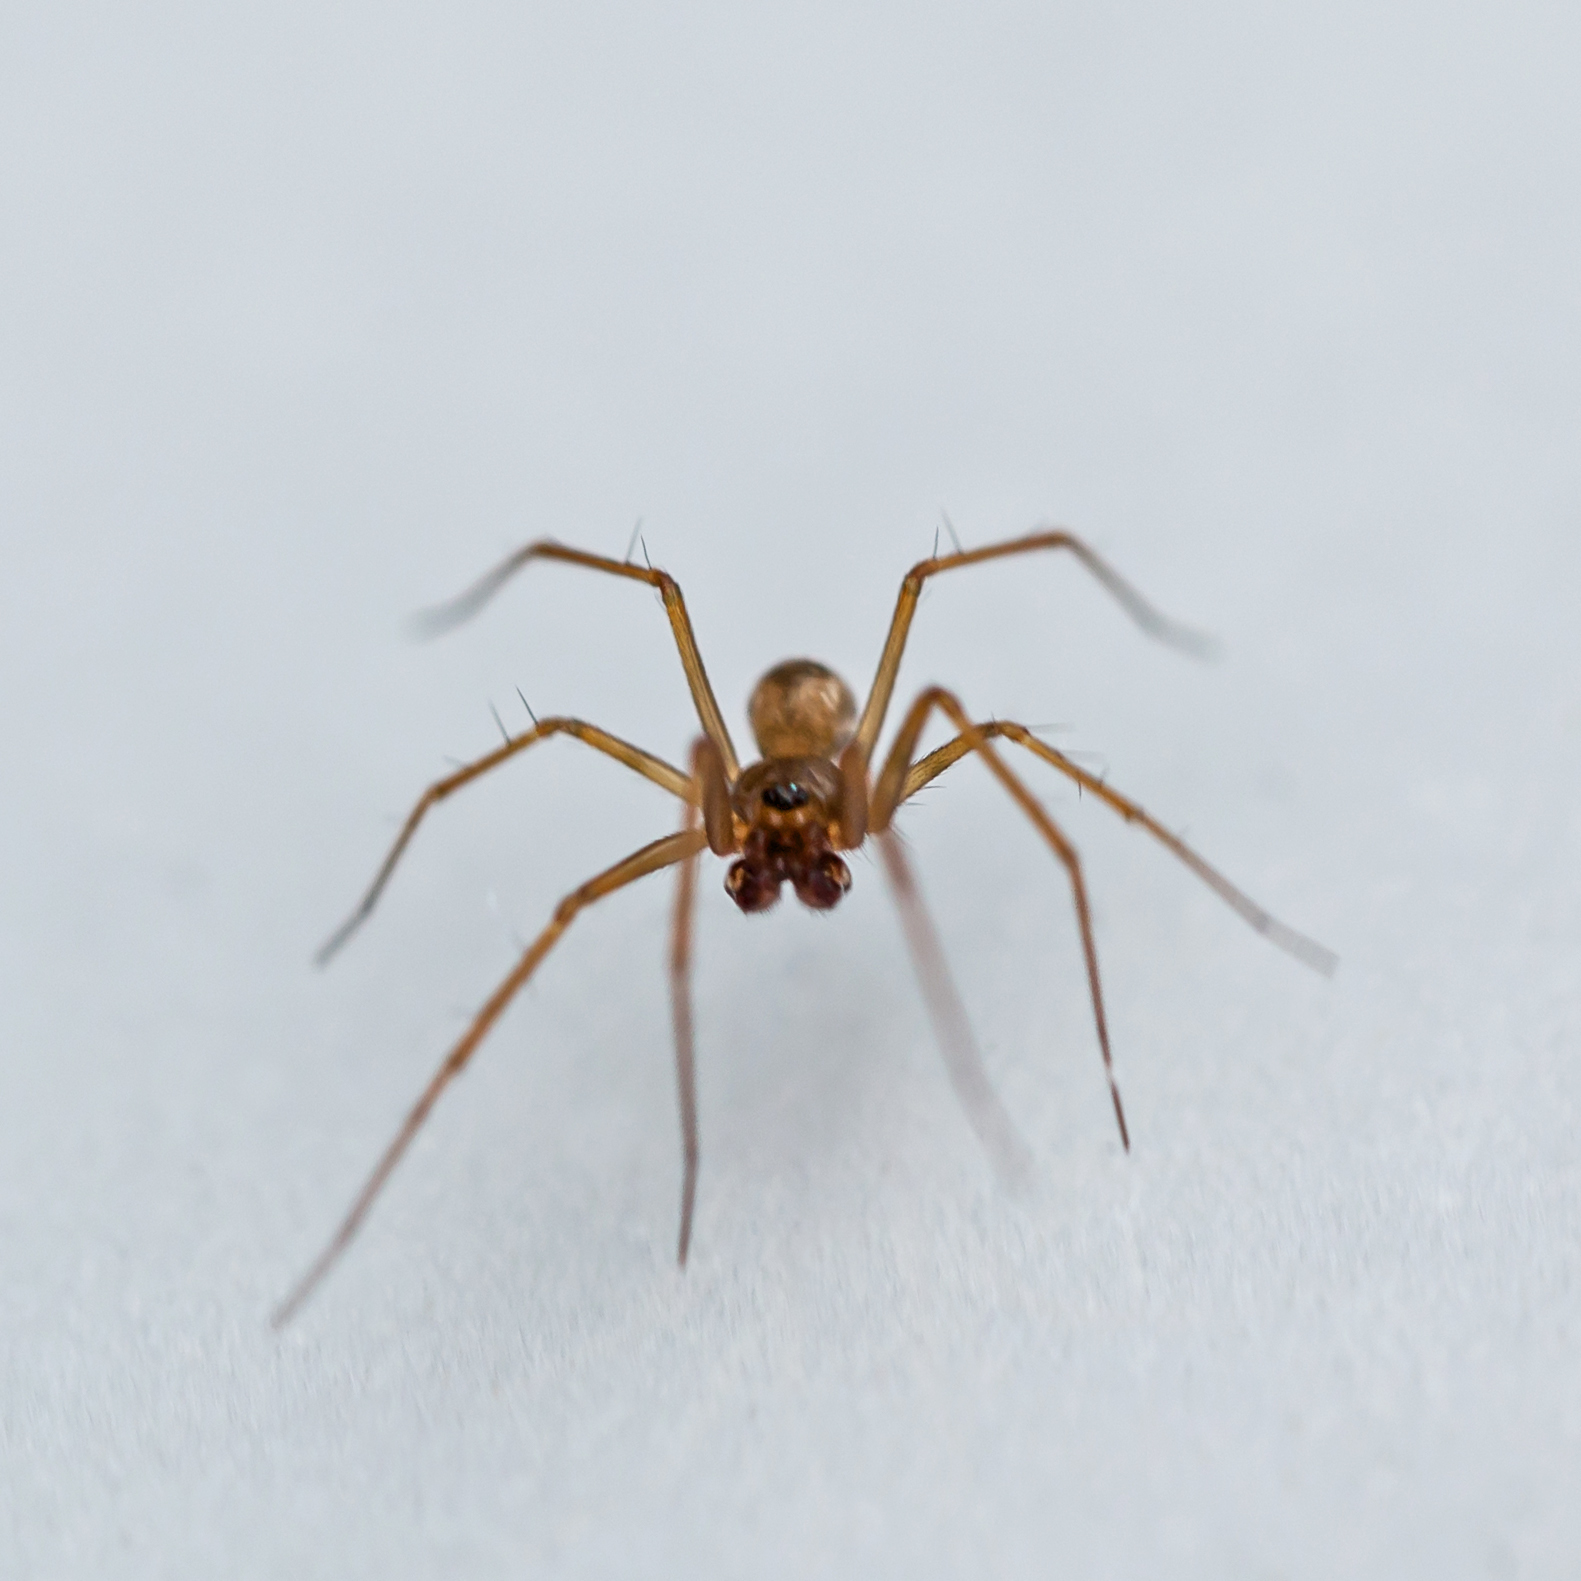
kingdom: Animalia
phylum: Arthropoda
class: Arachnida
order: Araneae
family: Linyphiidae
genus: Lepthyphantes
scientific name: Lepthyphantes leprosus
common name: Household fine sheetweaver
